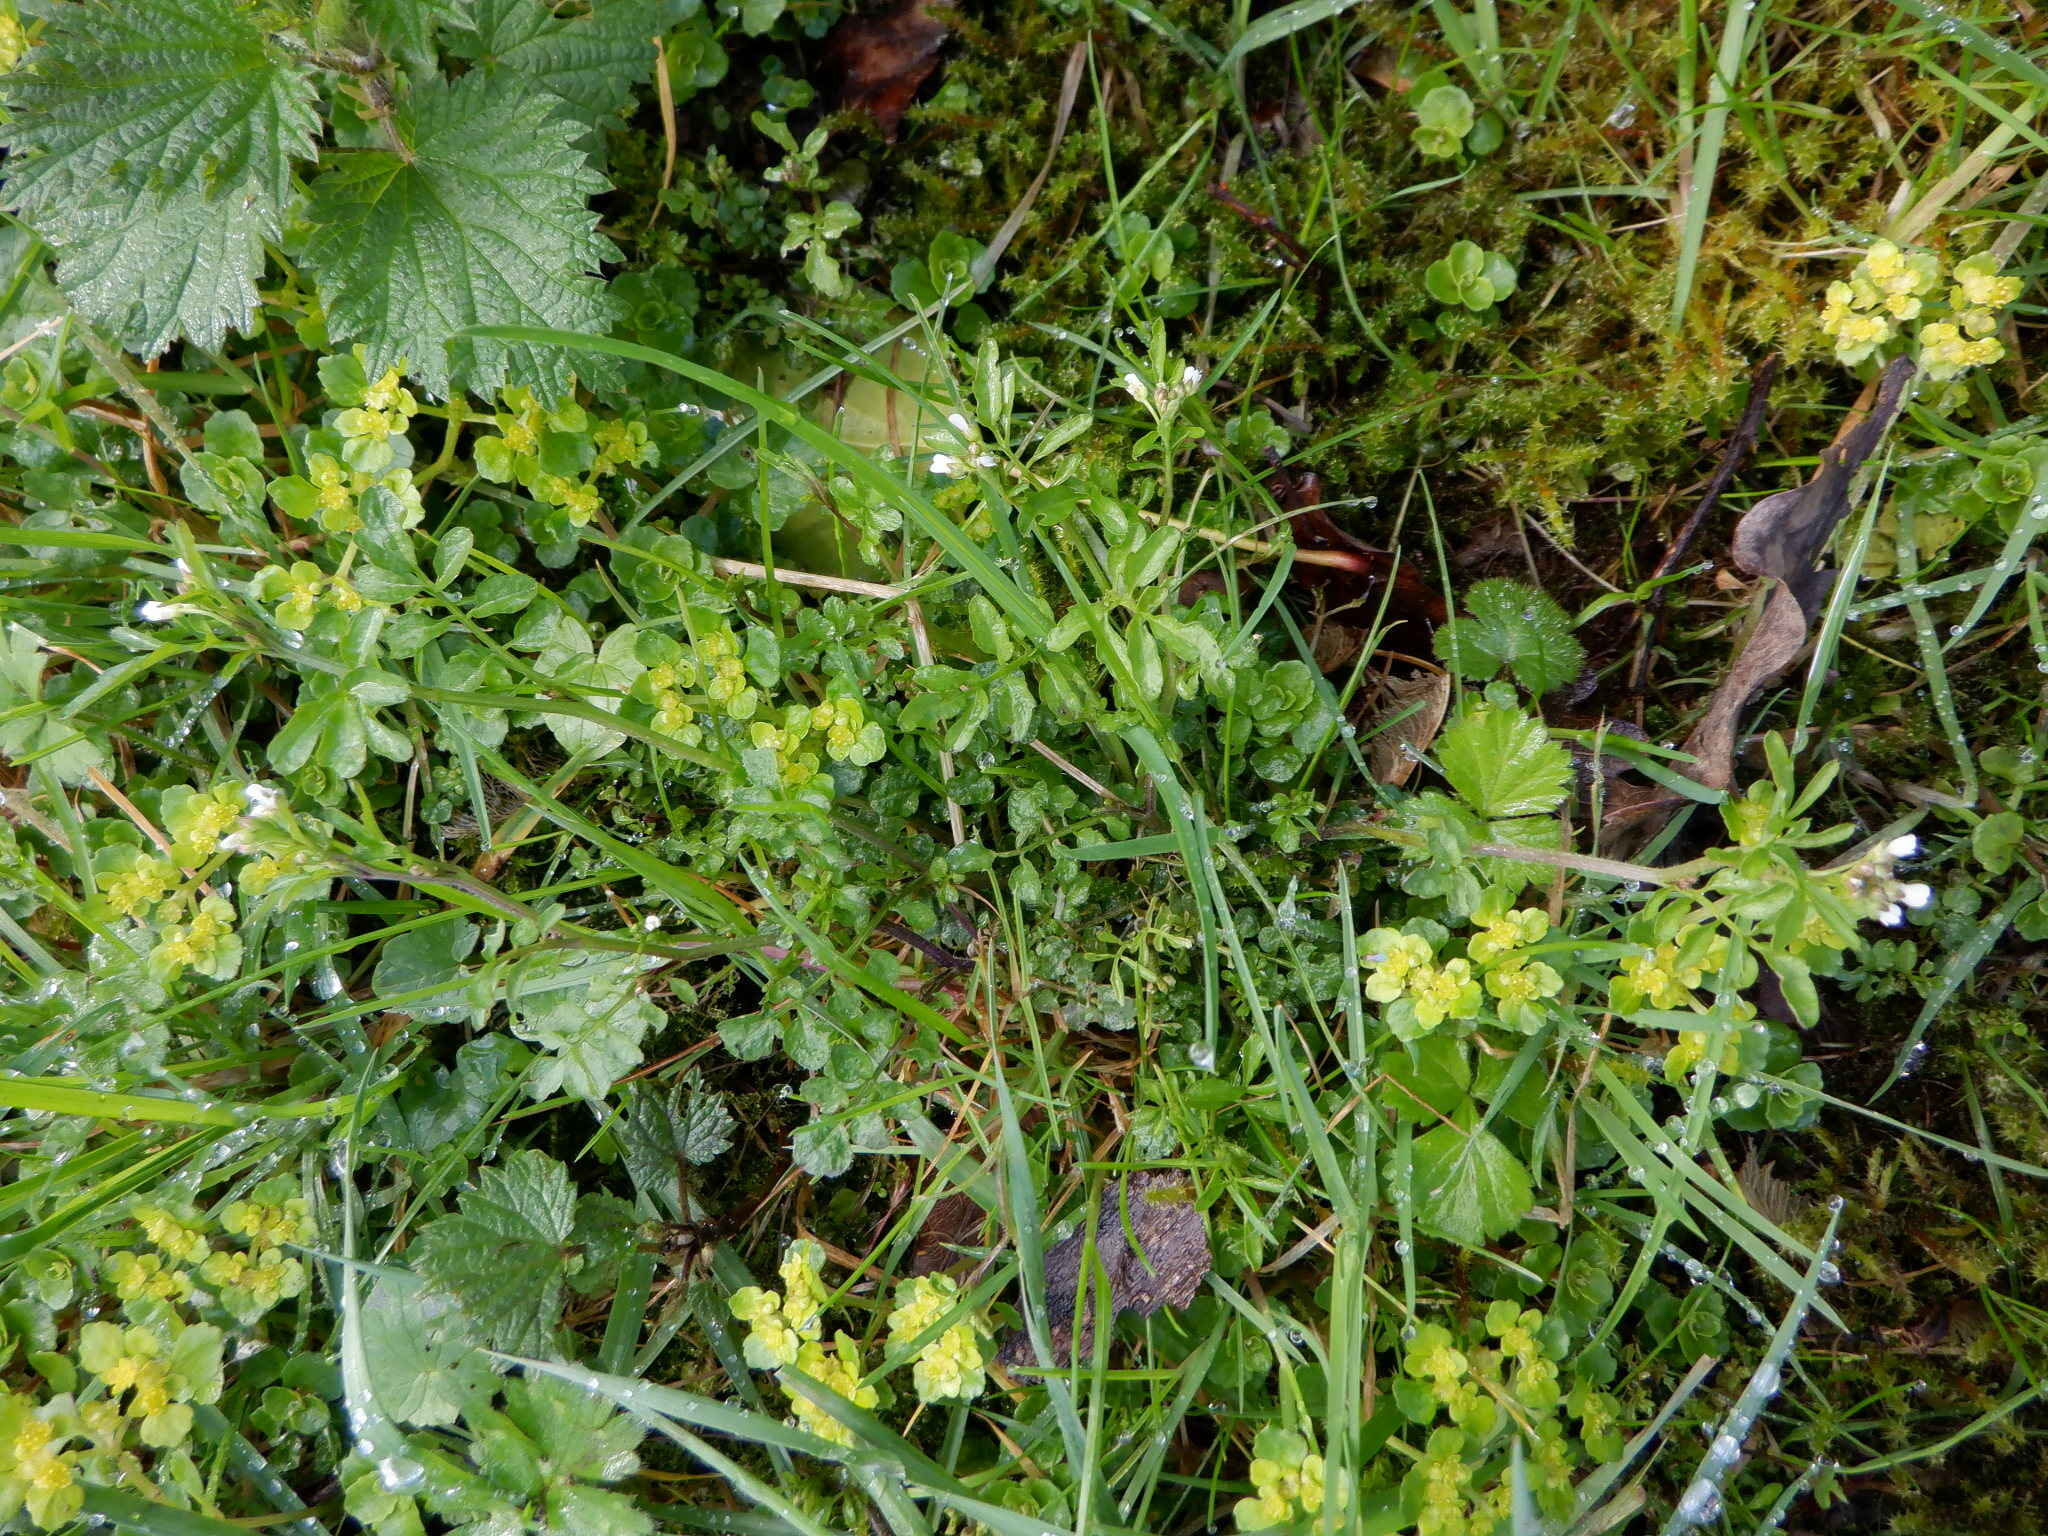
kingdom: Plantae
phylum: Tracheophyta
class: Magnoliopsida
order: Saxifragales
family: Saxifragaceae
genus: Chrysosplenium
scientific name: Chrysosplenium oppositifolium
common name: Opposite-leaved golden-saxifrage
